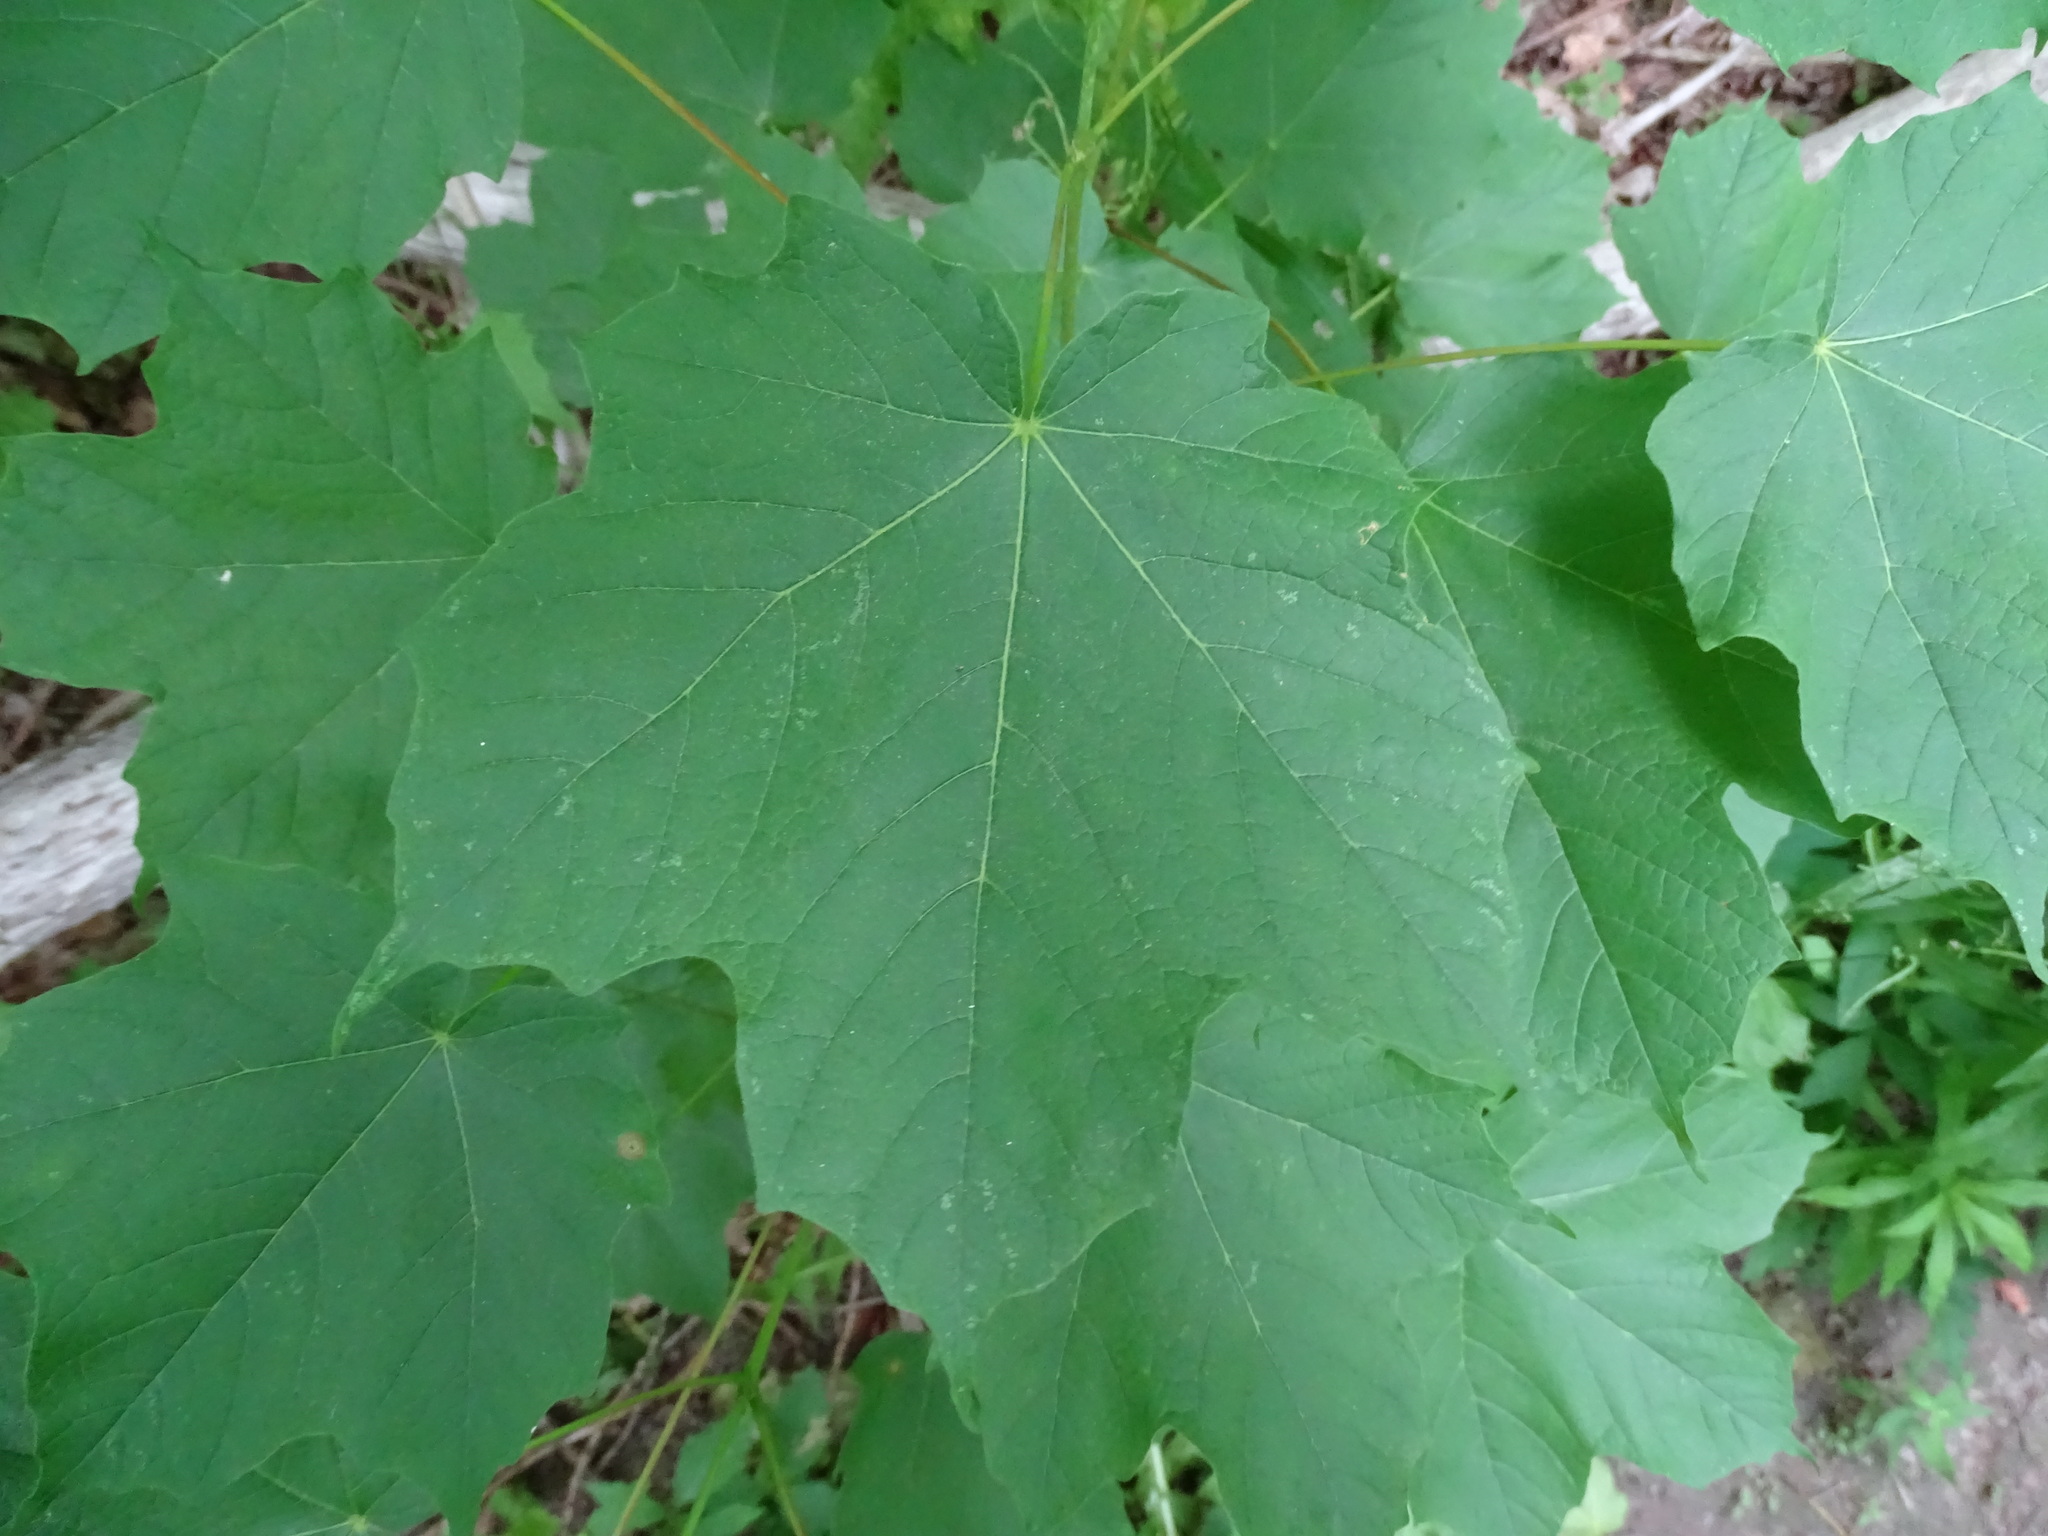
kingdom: Plantae
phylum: Tracheophyta
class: Magnoliopsida
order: Sapindales
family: Sapindaceae
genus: Acer
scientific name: Acer nigrum
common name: Black maple
